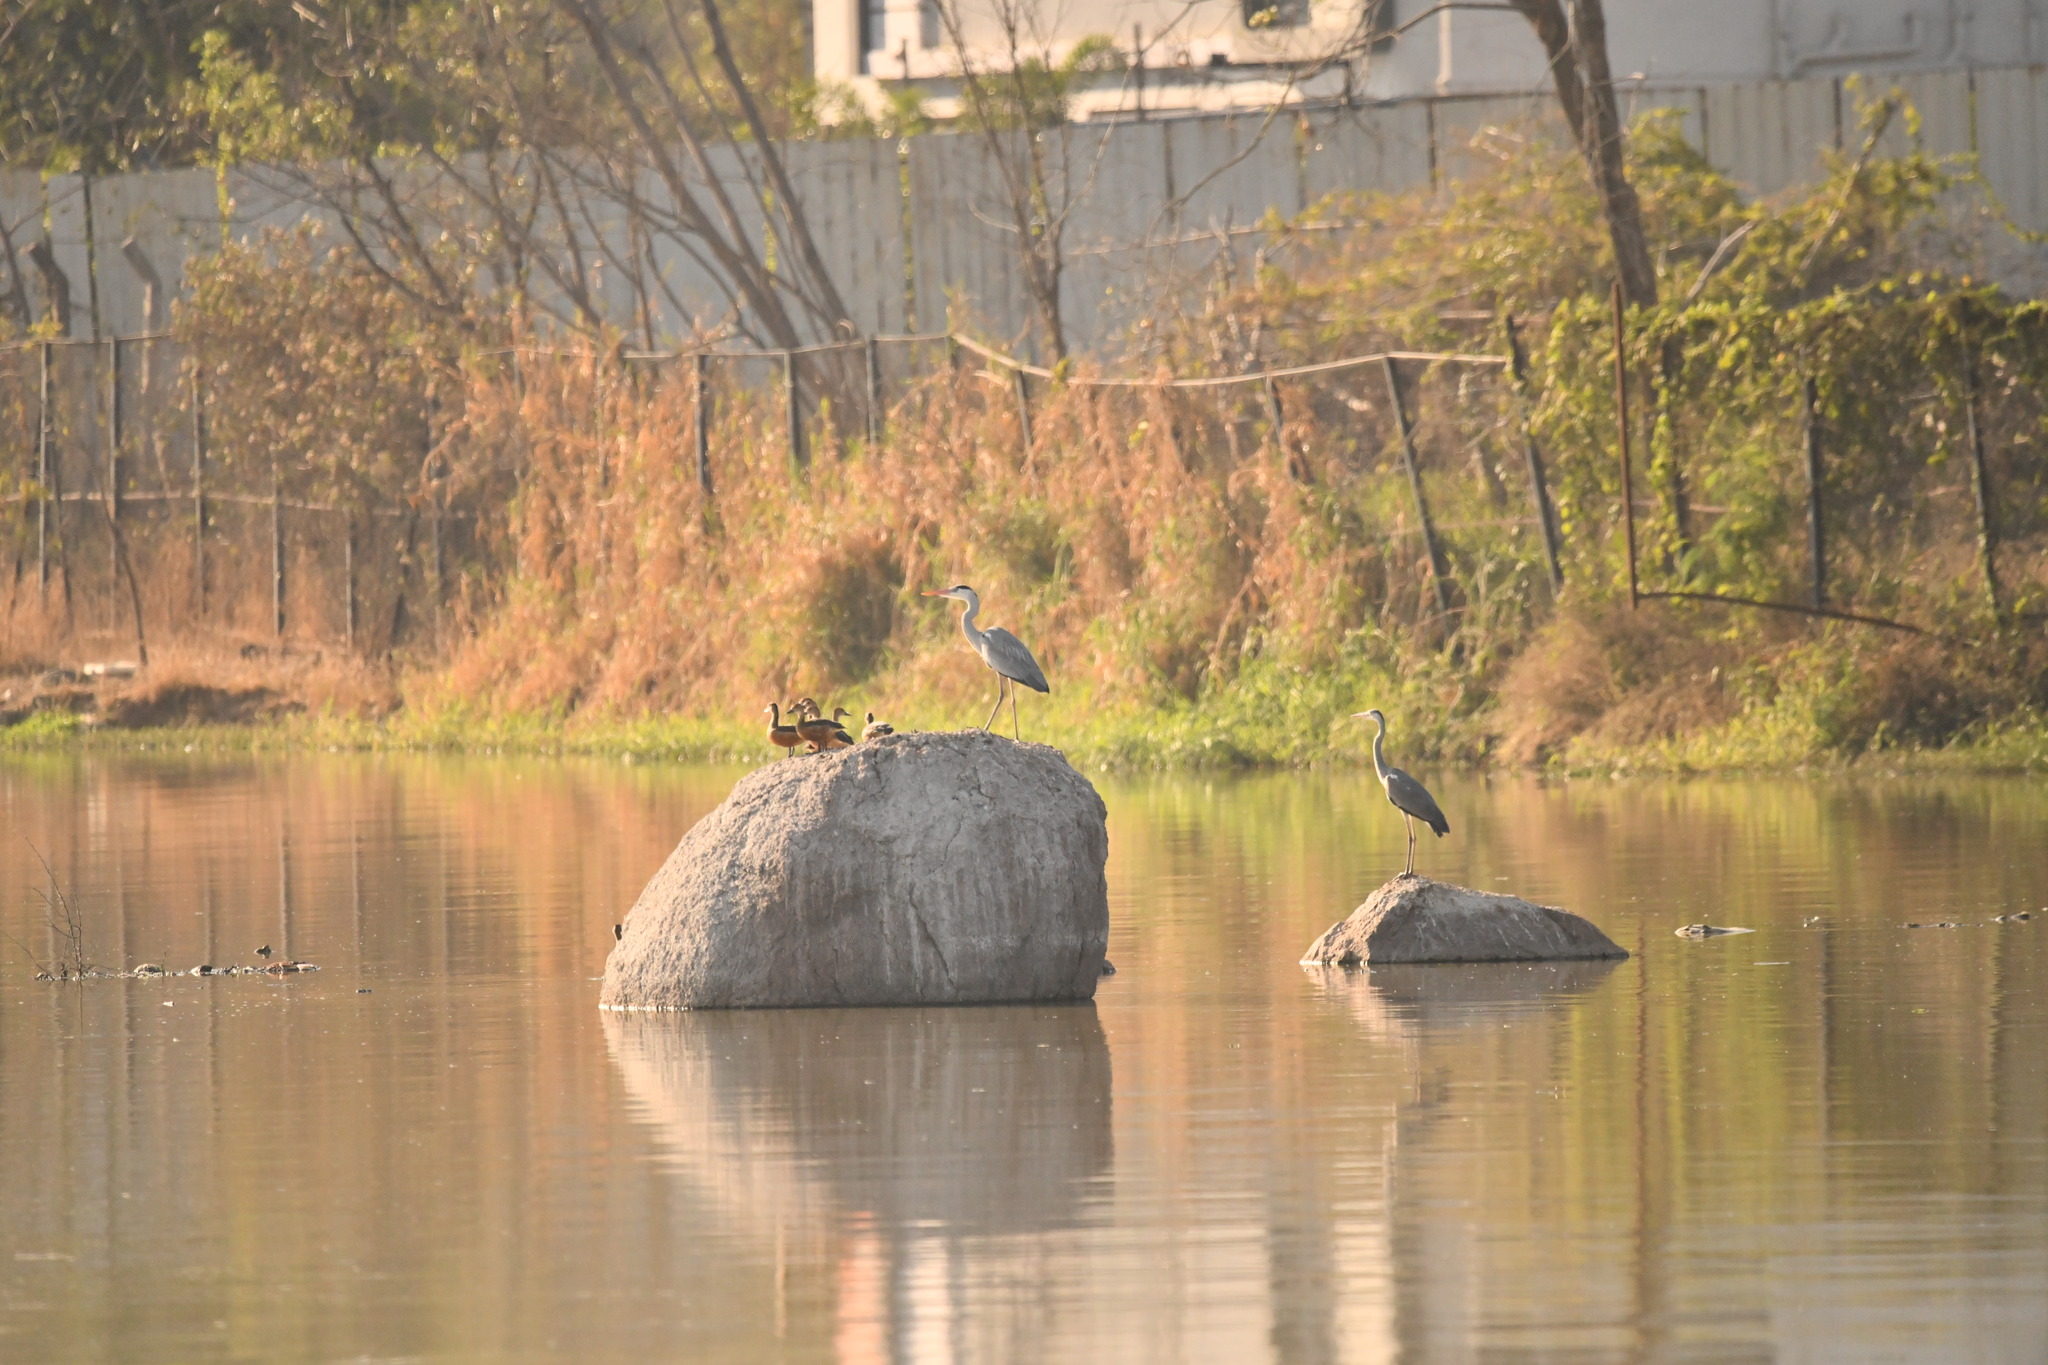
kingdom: Animalia
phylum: Chordata
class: Aves
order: Pelecaniformes
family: Ardeidae
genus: Ardea
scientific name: Ardea cinerea
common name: Grey heron
